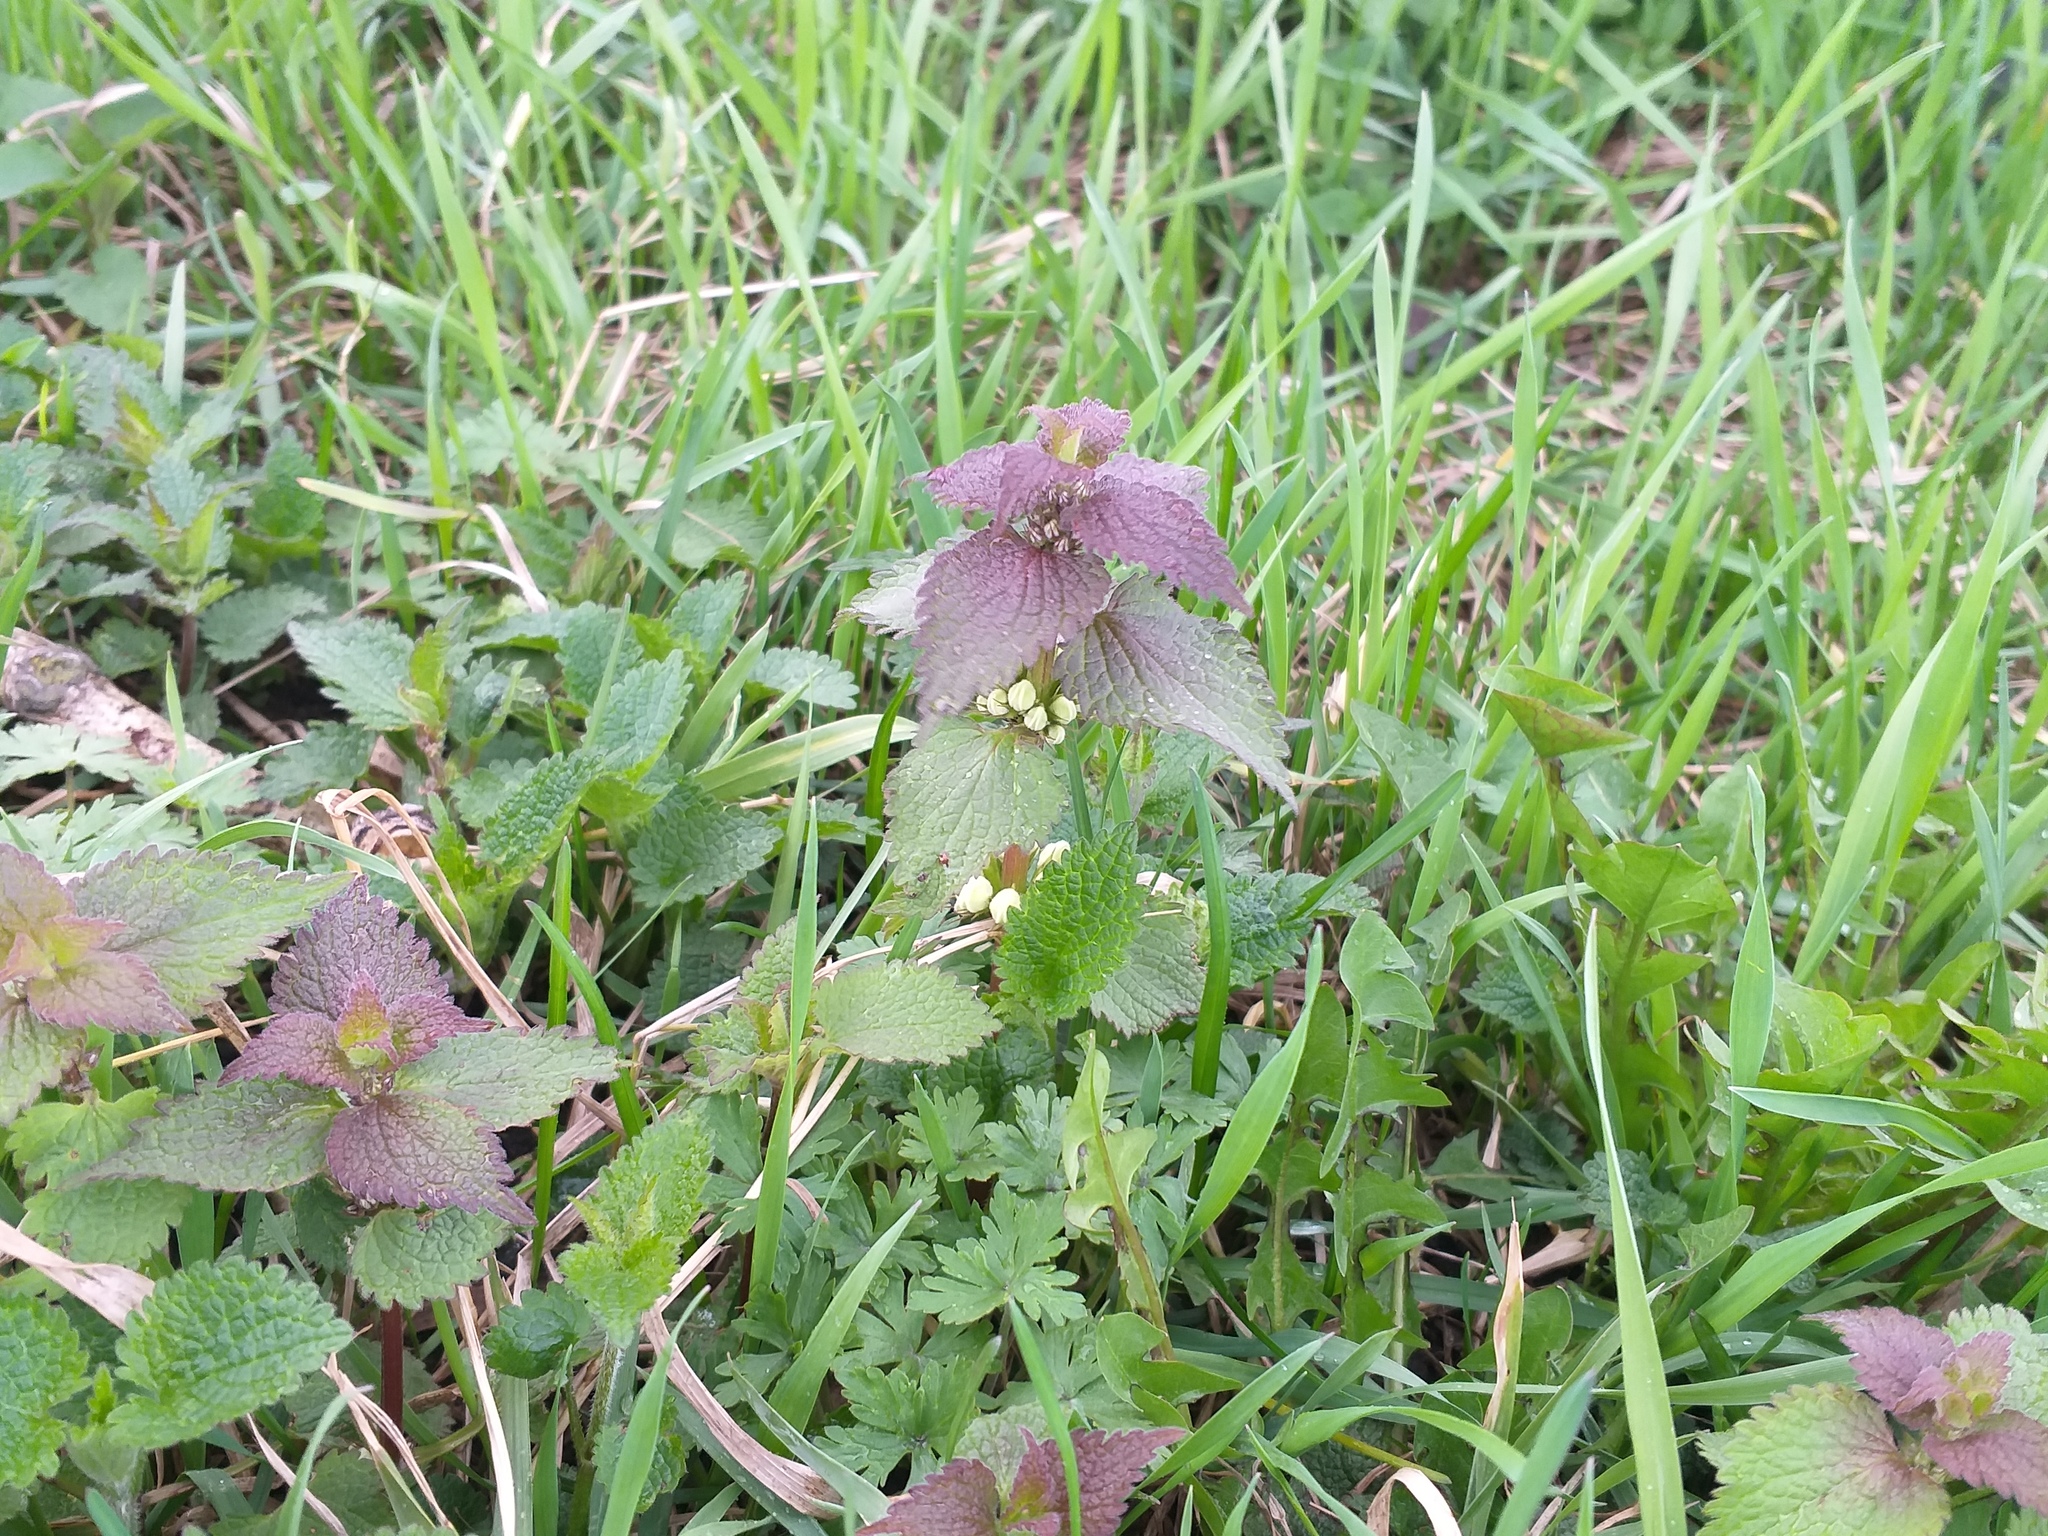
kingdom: Plantae
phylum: Tracheophyta
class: Magnoliopsida
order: Lamiales
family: Lamiaceae
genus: Lamium
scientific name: Lamium album
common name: White dead-nettle
